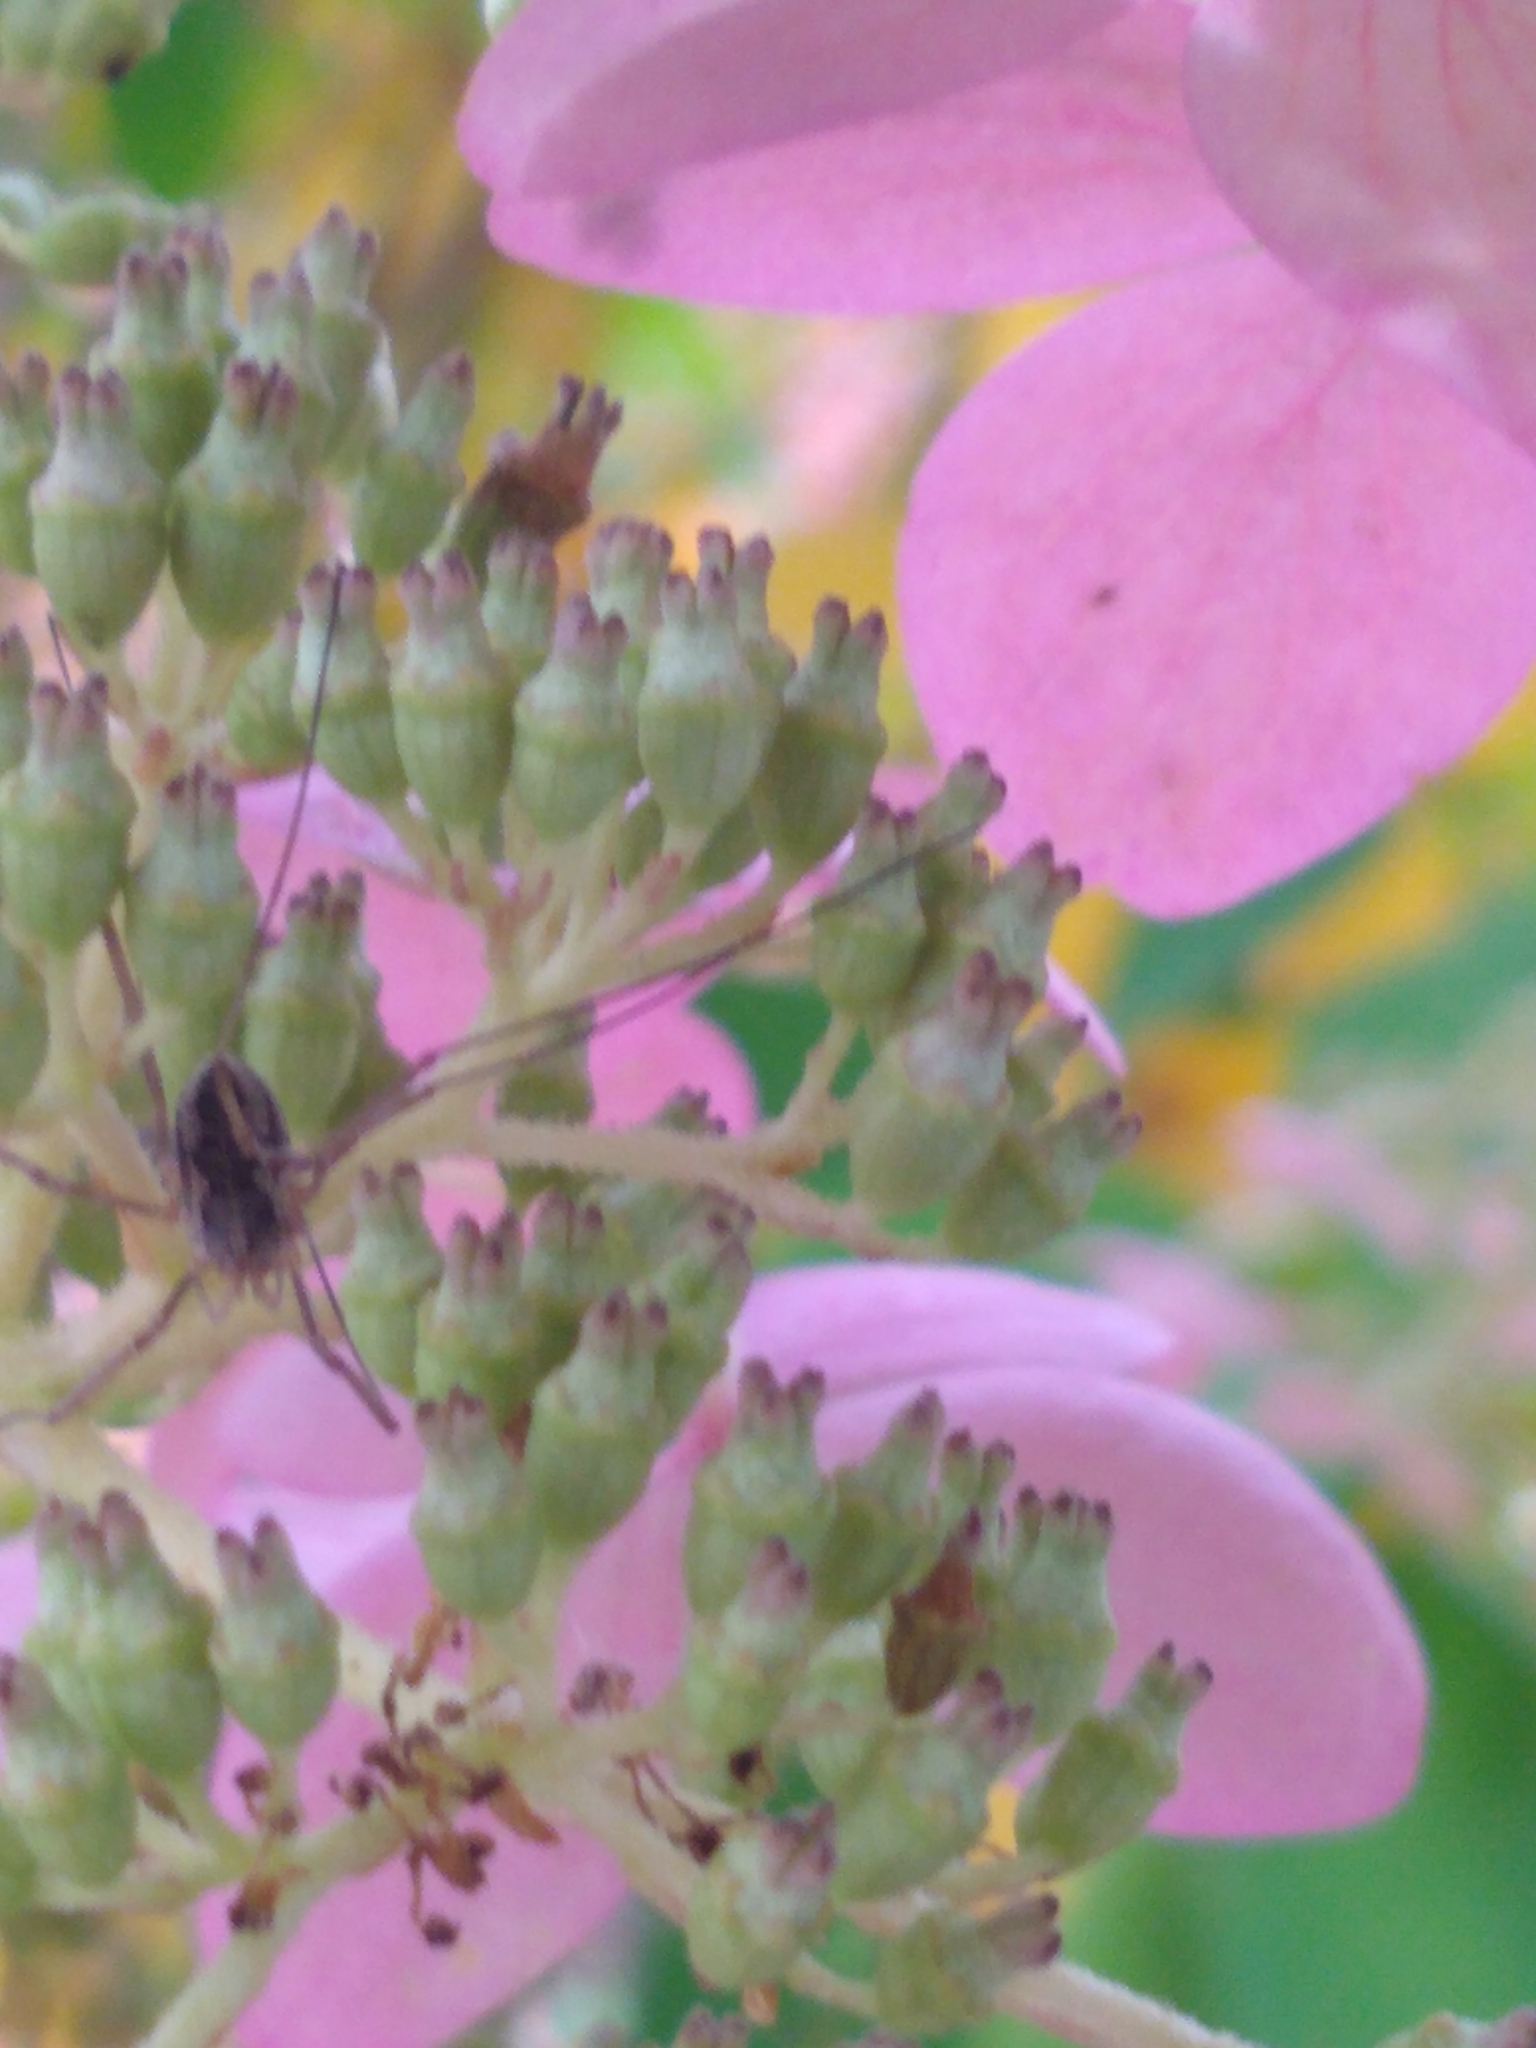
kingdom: Animalia
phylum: Arthropoda
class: Arachnida
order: Opiliones
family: Phalangiidae
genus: Phalangium
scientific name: Phalangium opilio
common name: Daddy longleg
